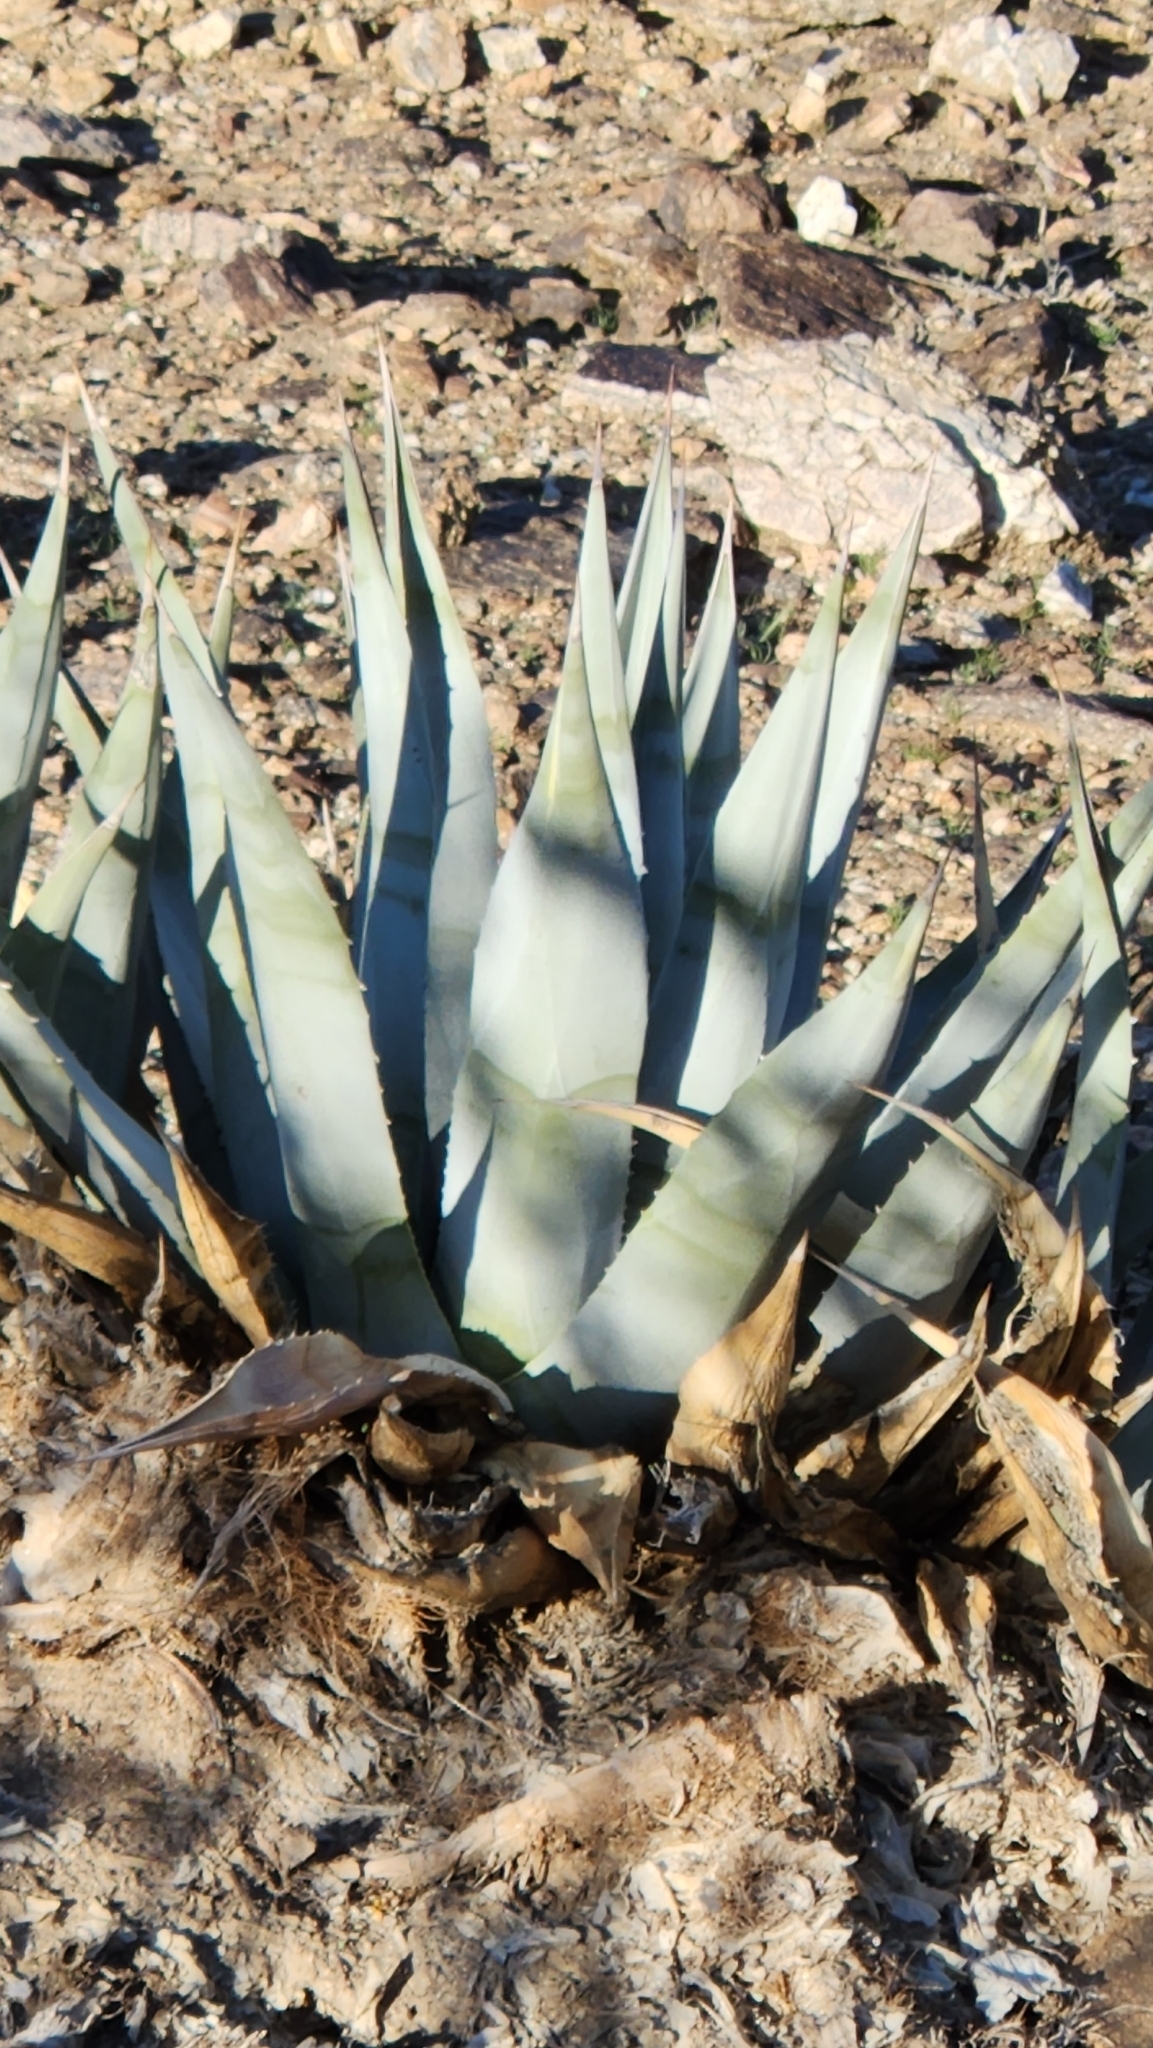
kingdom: Plantae
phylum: Tracheophyta
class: Liliopsida
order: Asparagales
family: Asparagaceae
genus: Agave
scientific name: Agave deserti
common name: Desert agave
